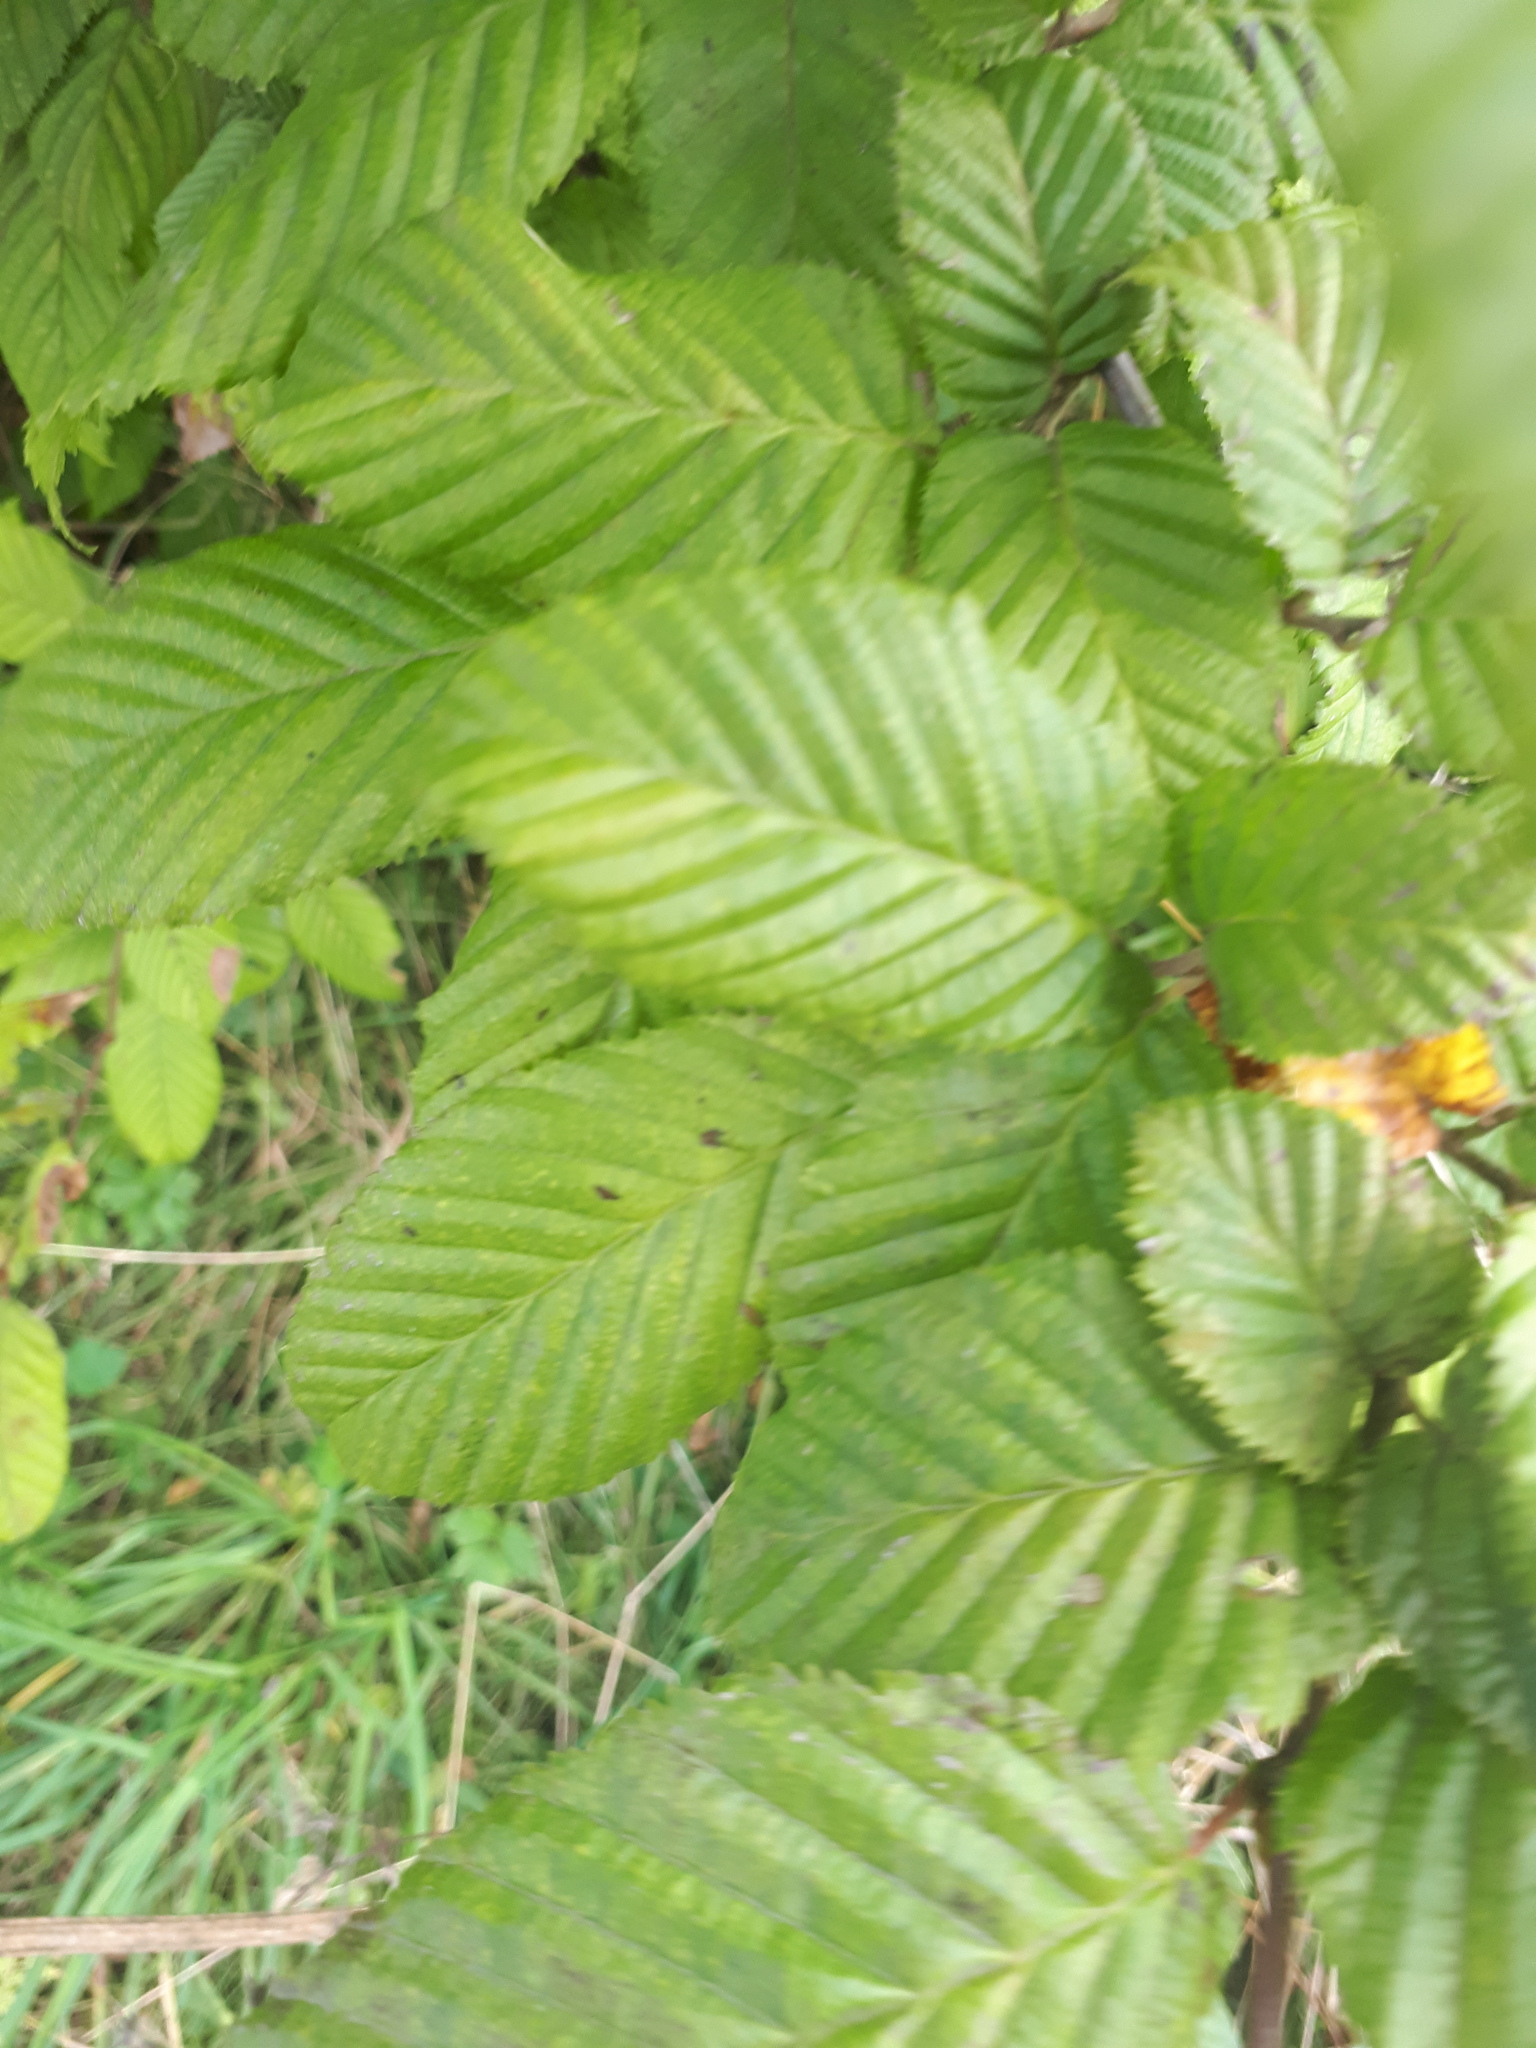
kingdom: Plantae
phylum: Tracheophyta
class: Magnoliopsida
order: Fagales
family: Betulaceae
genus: Carpinus
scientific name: Carpinus betulus
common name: Hornbeam
